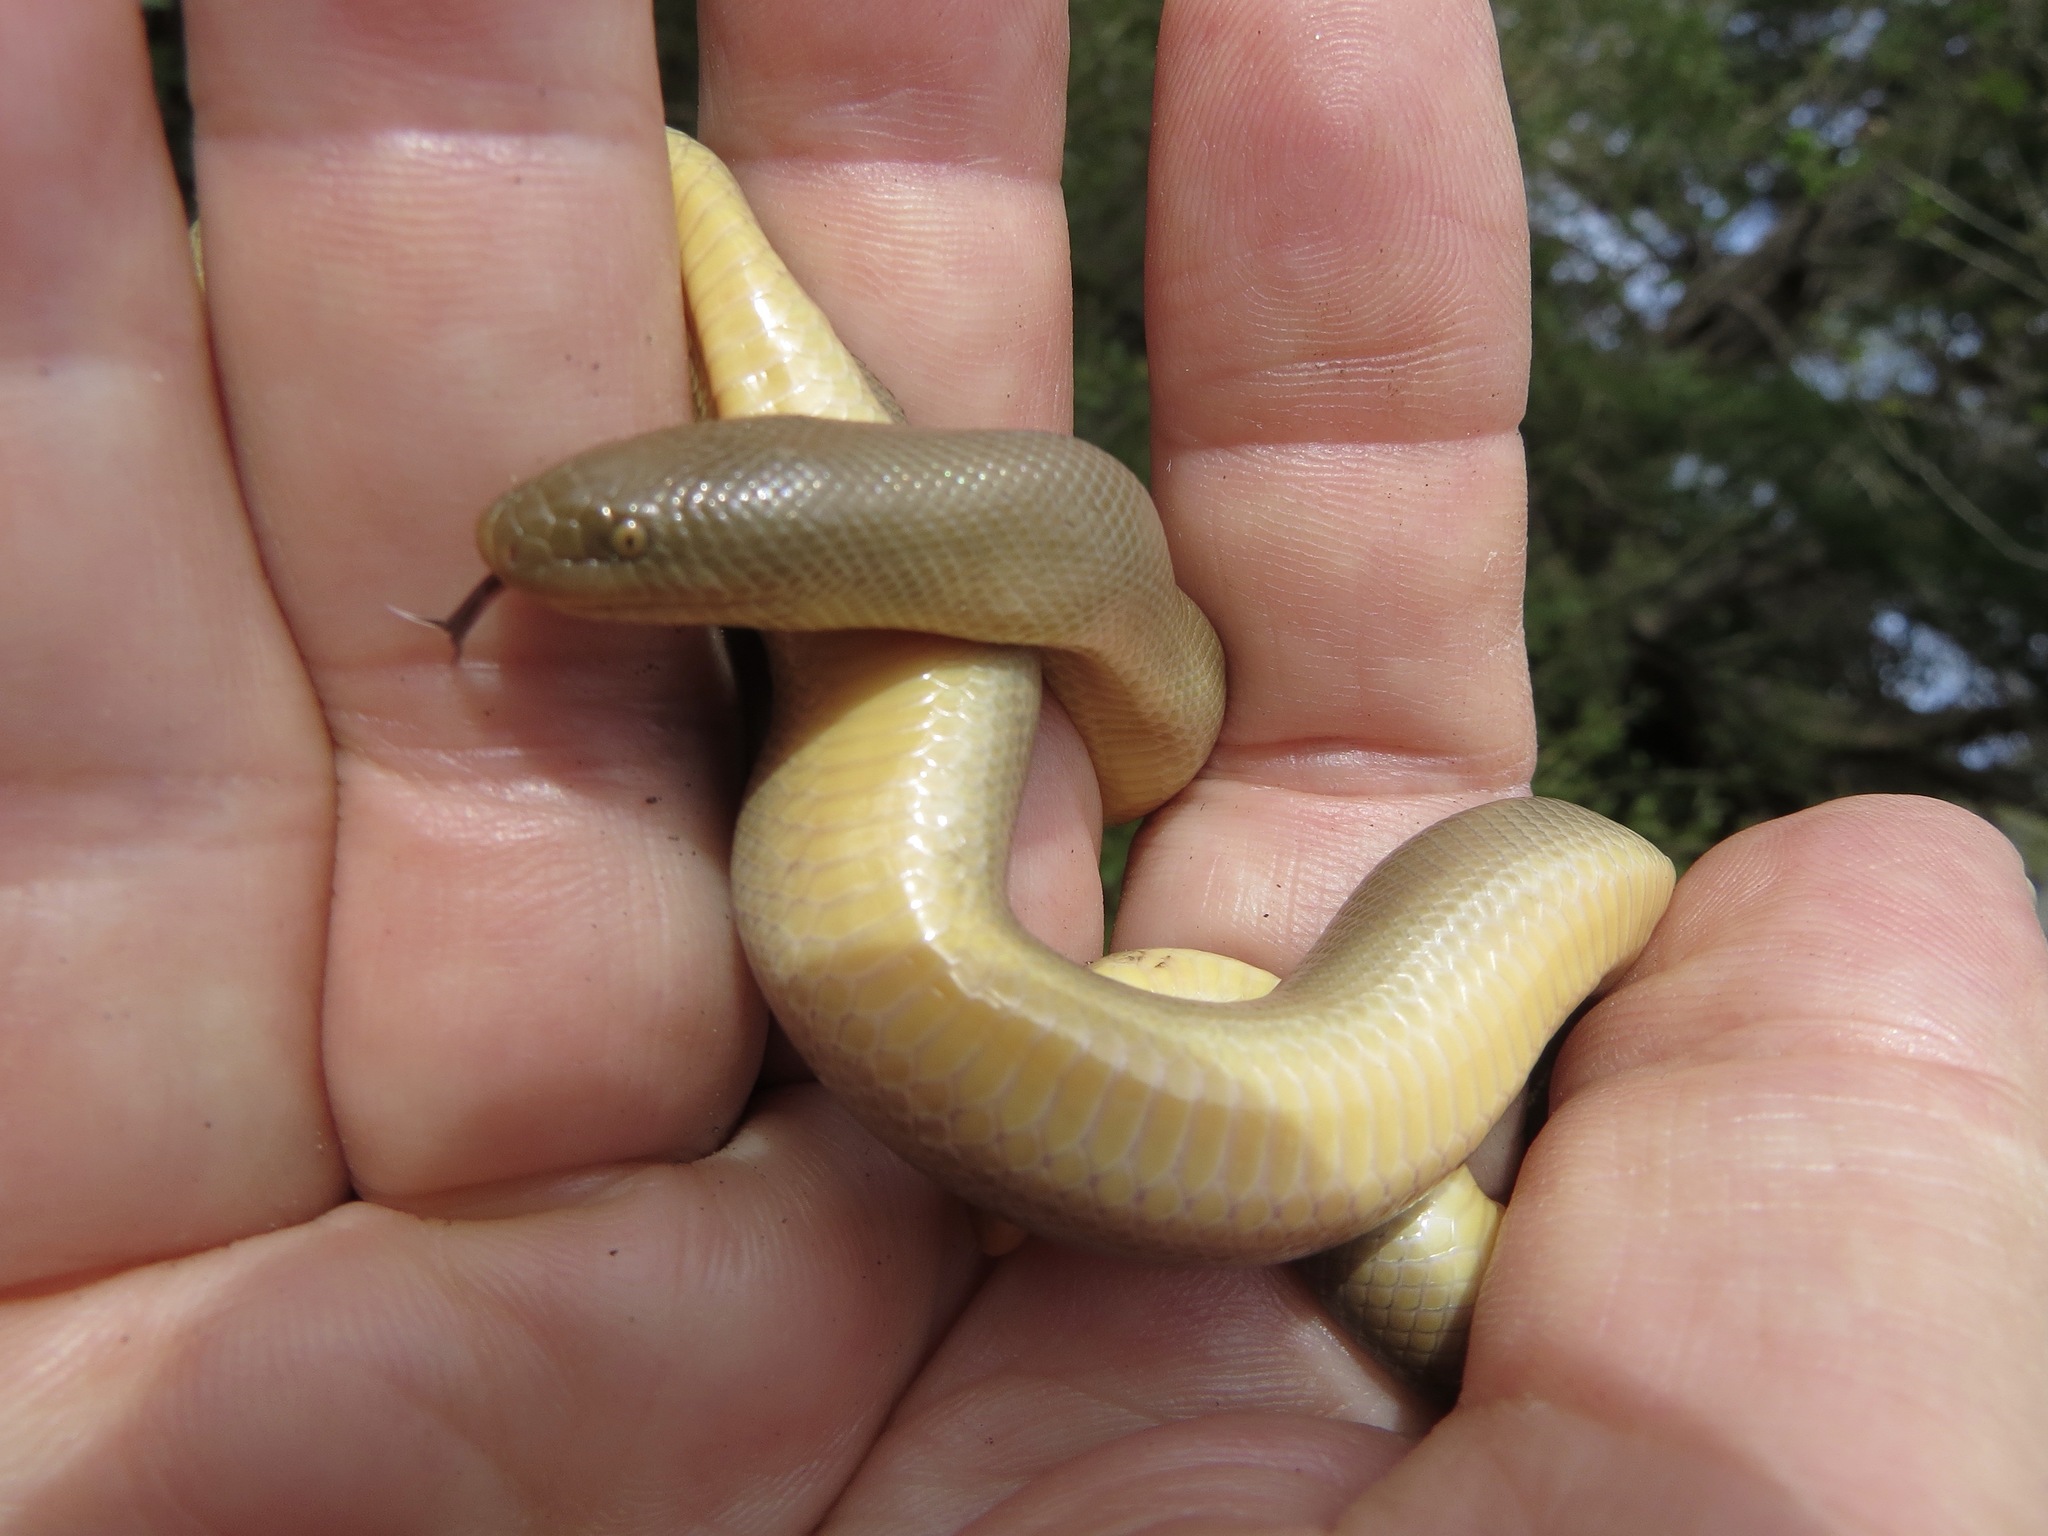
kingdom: Animalia
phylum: Chordata
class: Squamata
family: Boidae
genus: Charina
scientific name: Charina bottae
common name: Northern rubber boa
